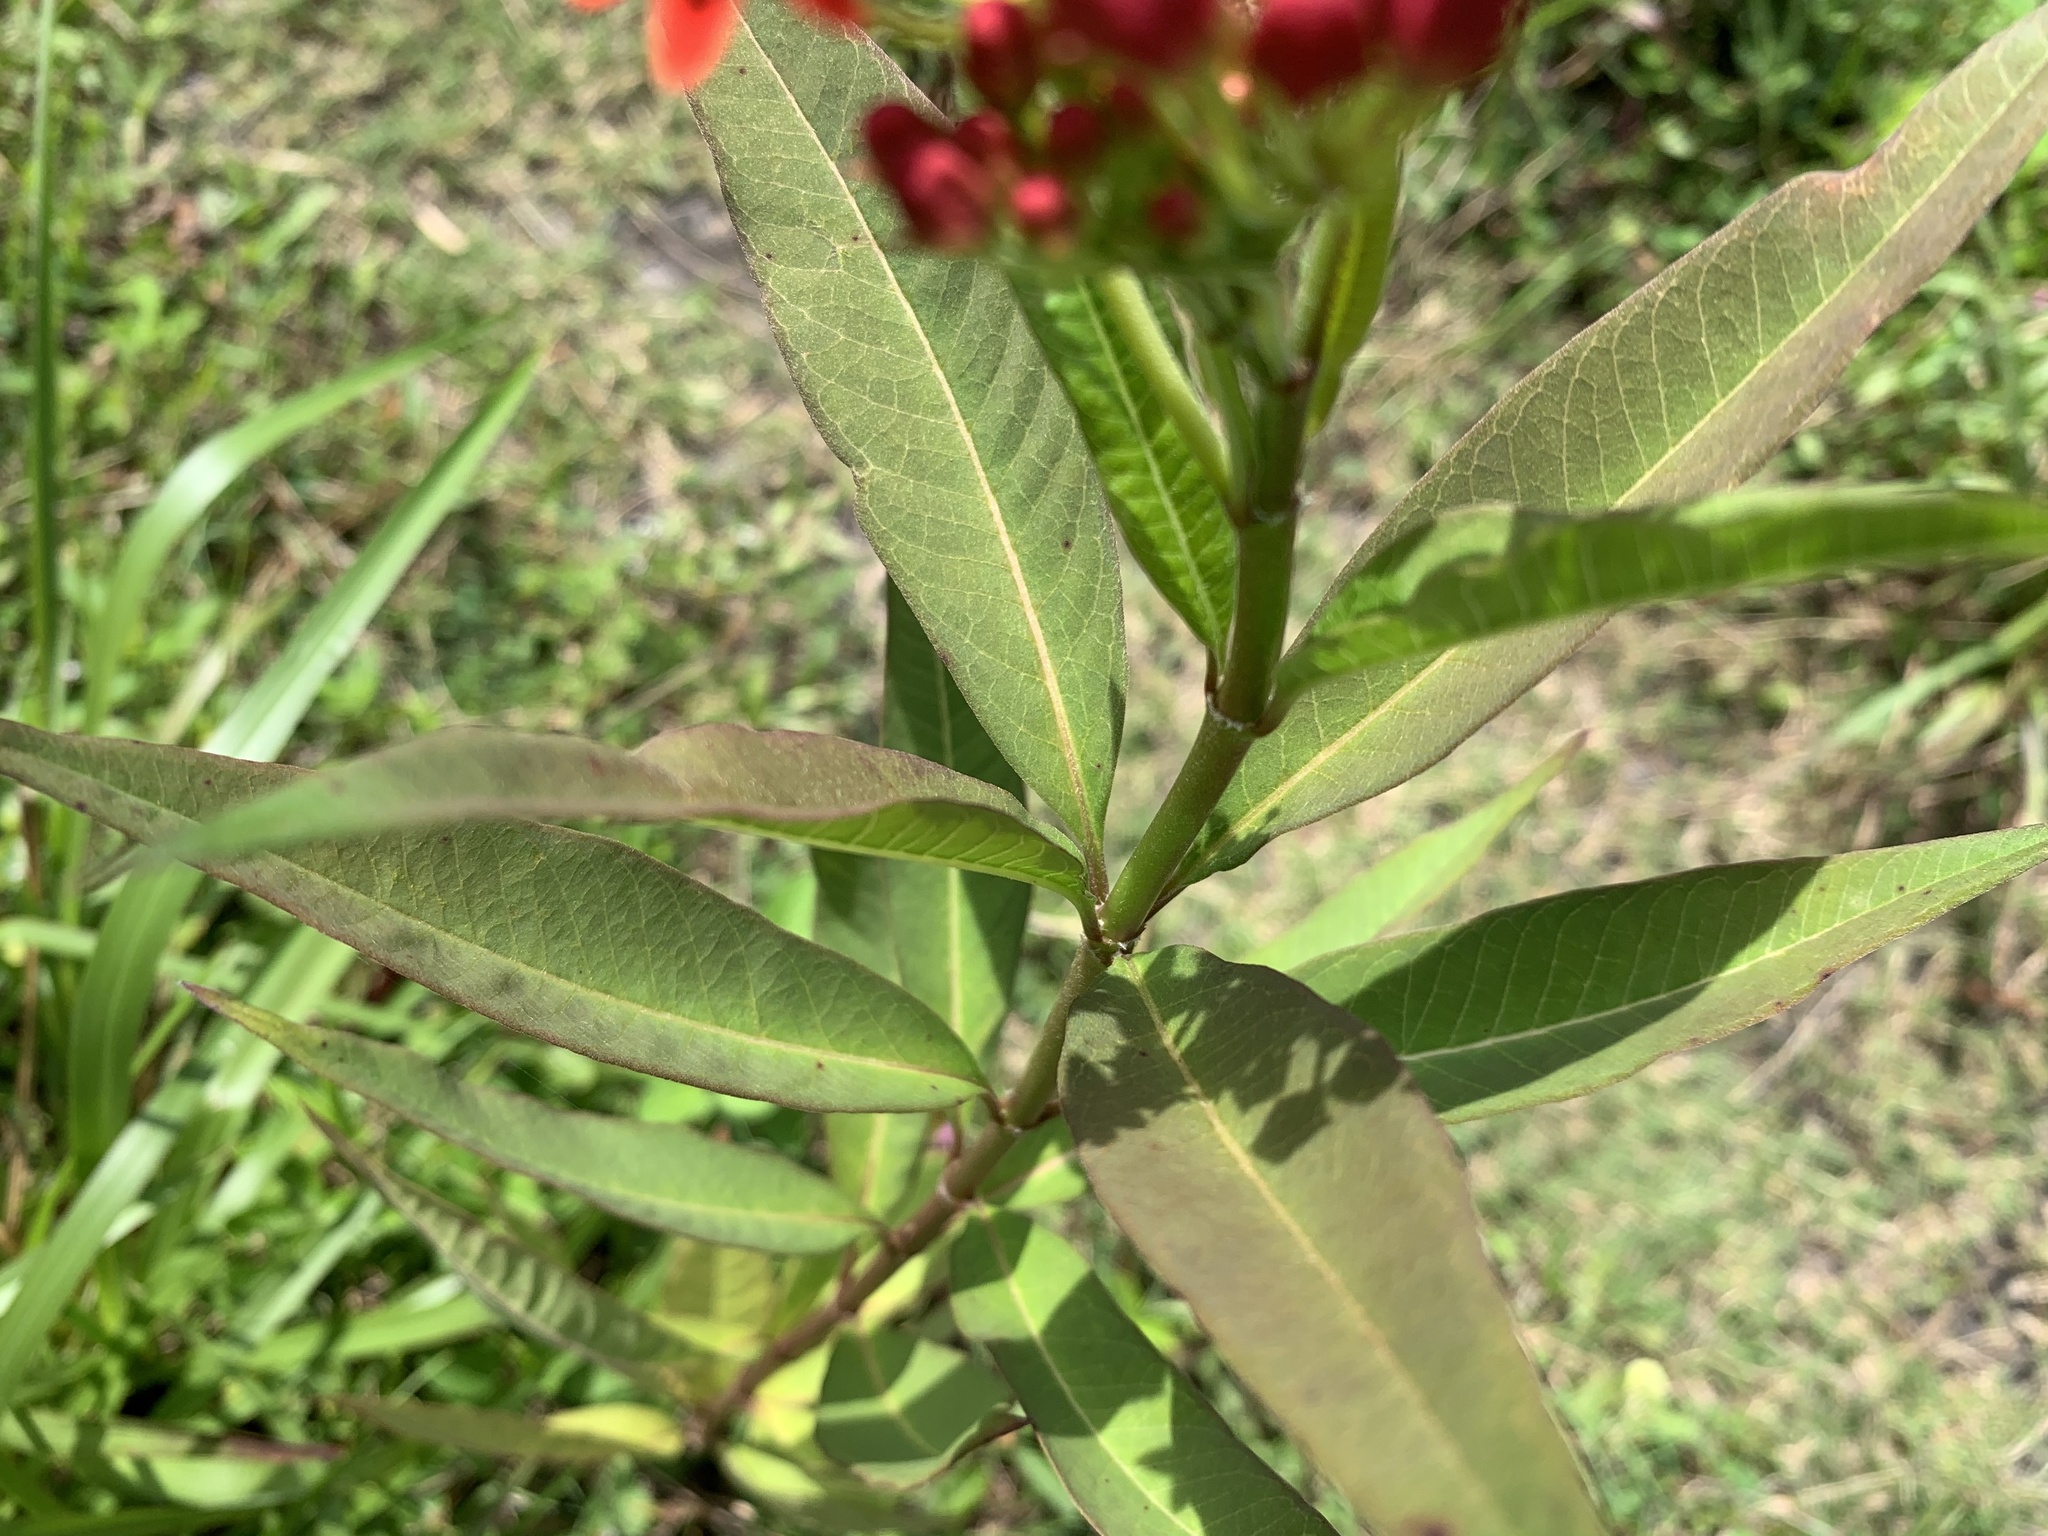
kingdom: Plantae
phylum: Tracheophyta
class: Magnoliopsida
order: Gentianales
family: Apocynaceae
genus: Asclepias
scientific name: Asclepias curassavica
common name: Bloodflower
